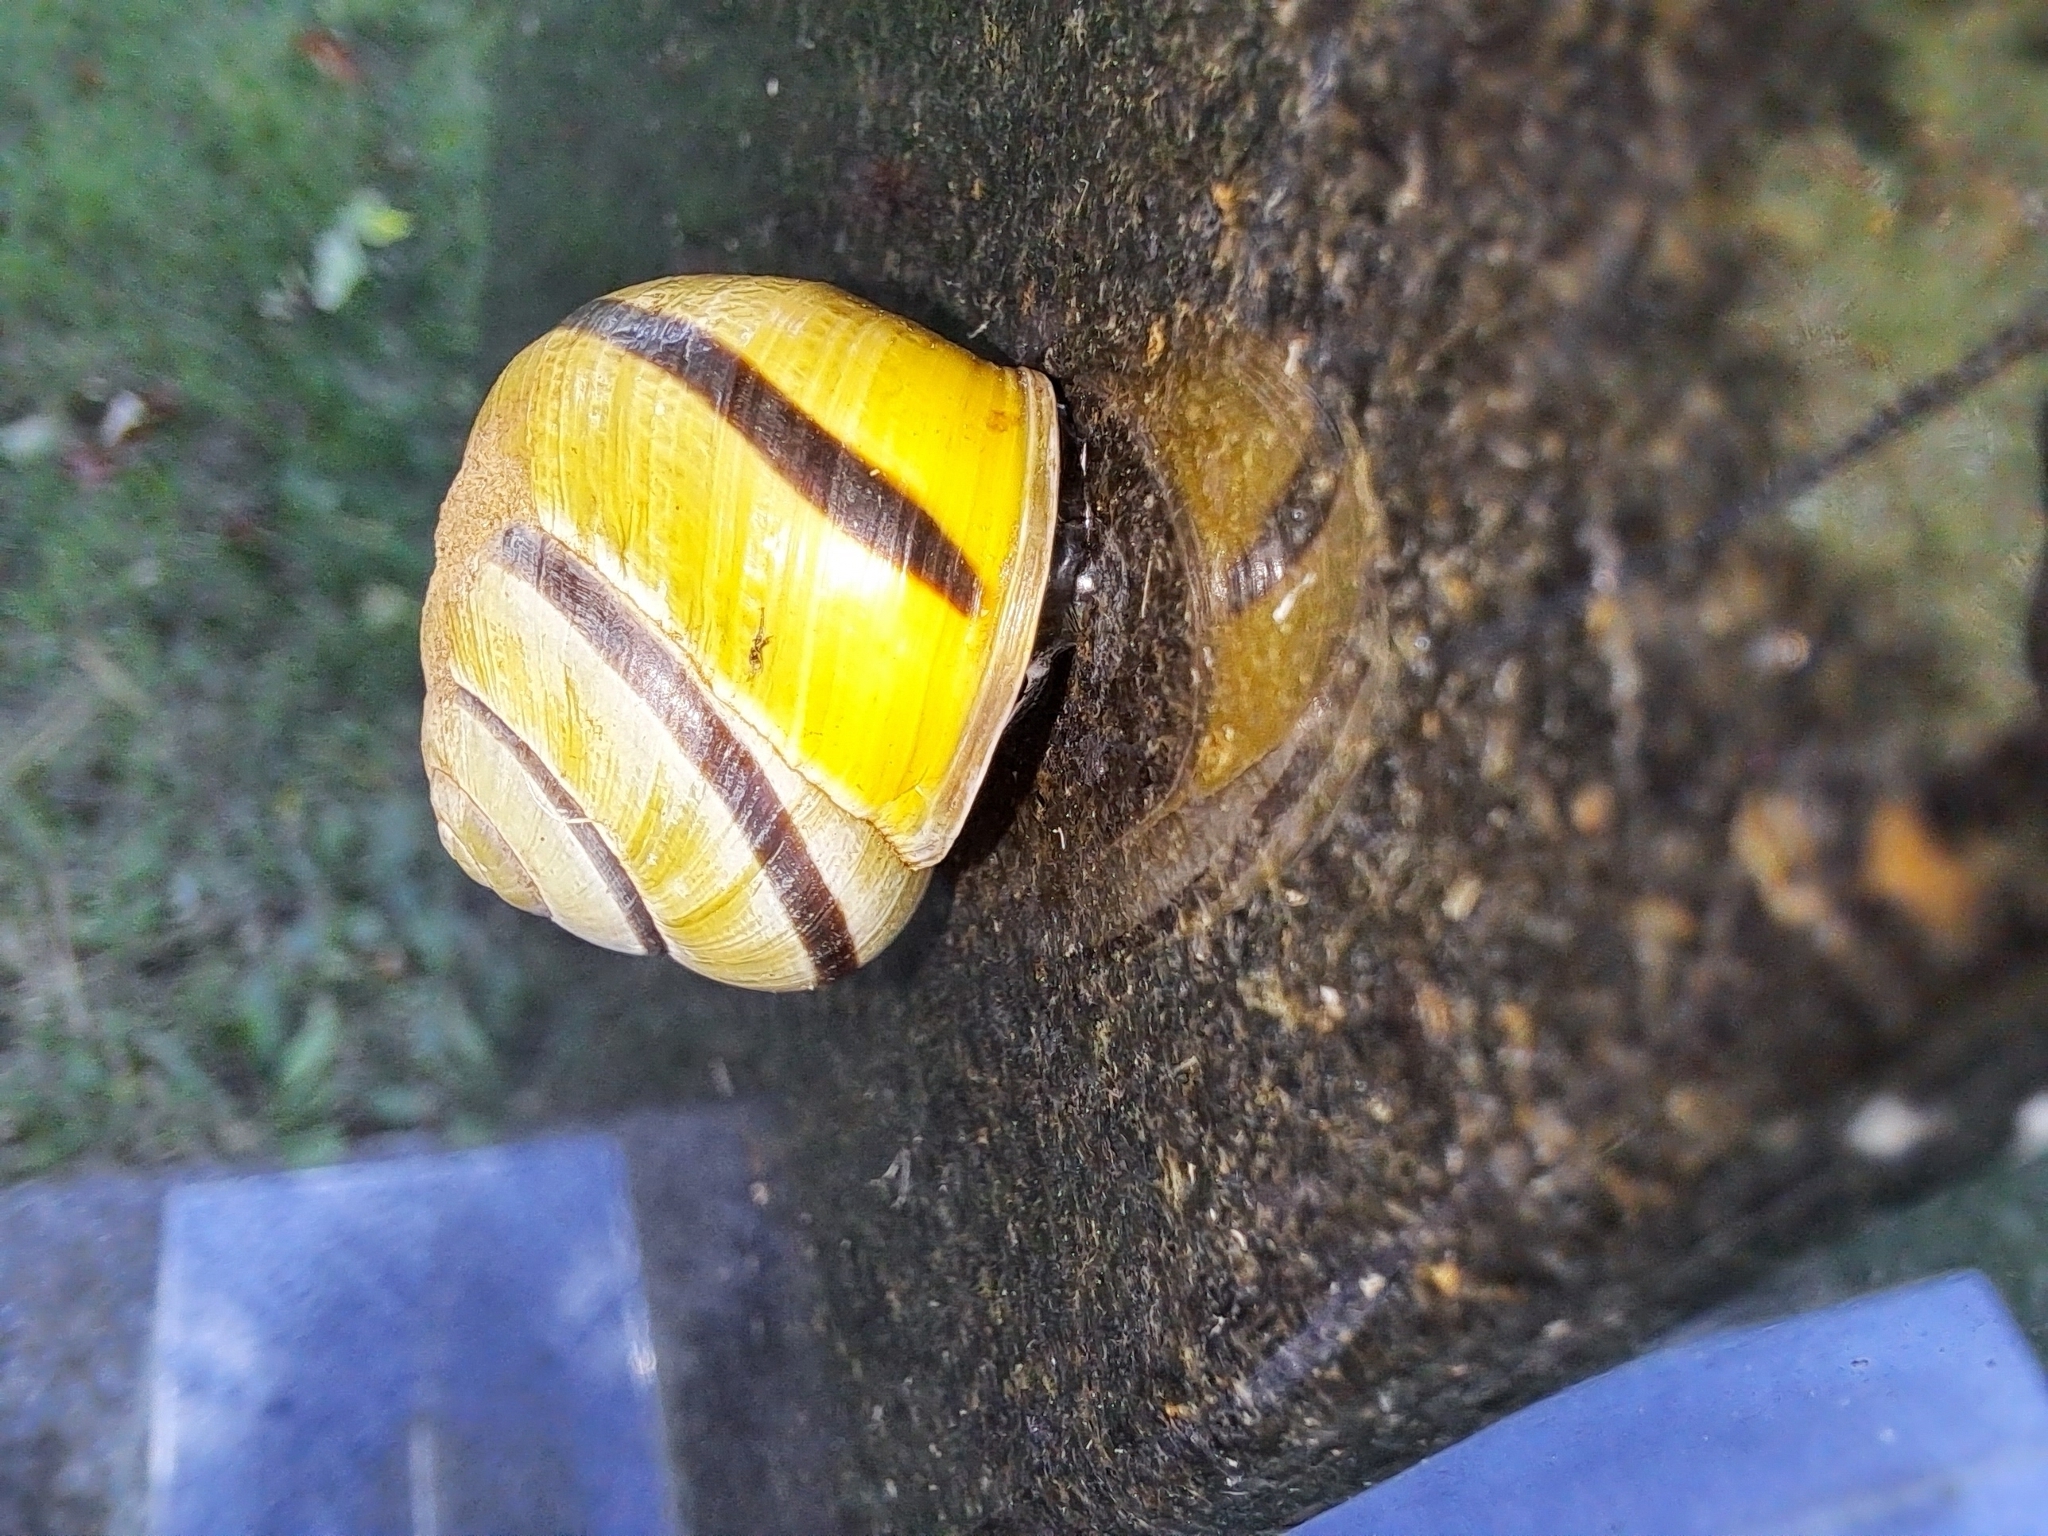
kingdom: Animalia
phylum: Mollusca
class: Gastropoda
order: Stylommatophora
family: Helicidae
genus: Cepaea
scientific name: Cepaea nemoralis
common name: Grovesnail
